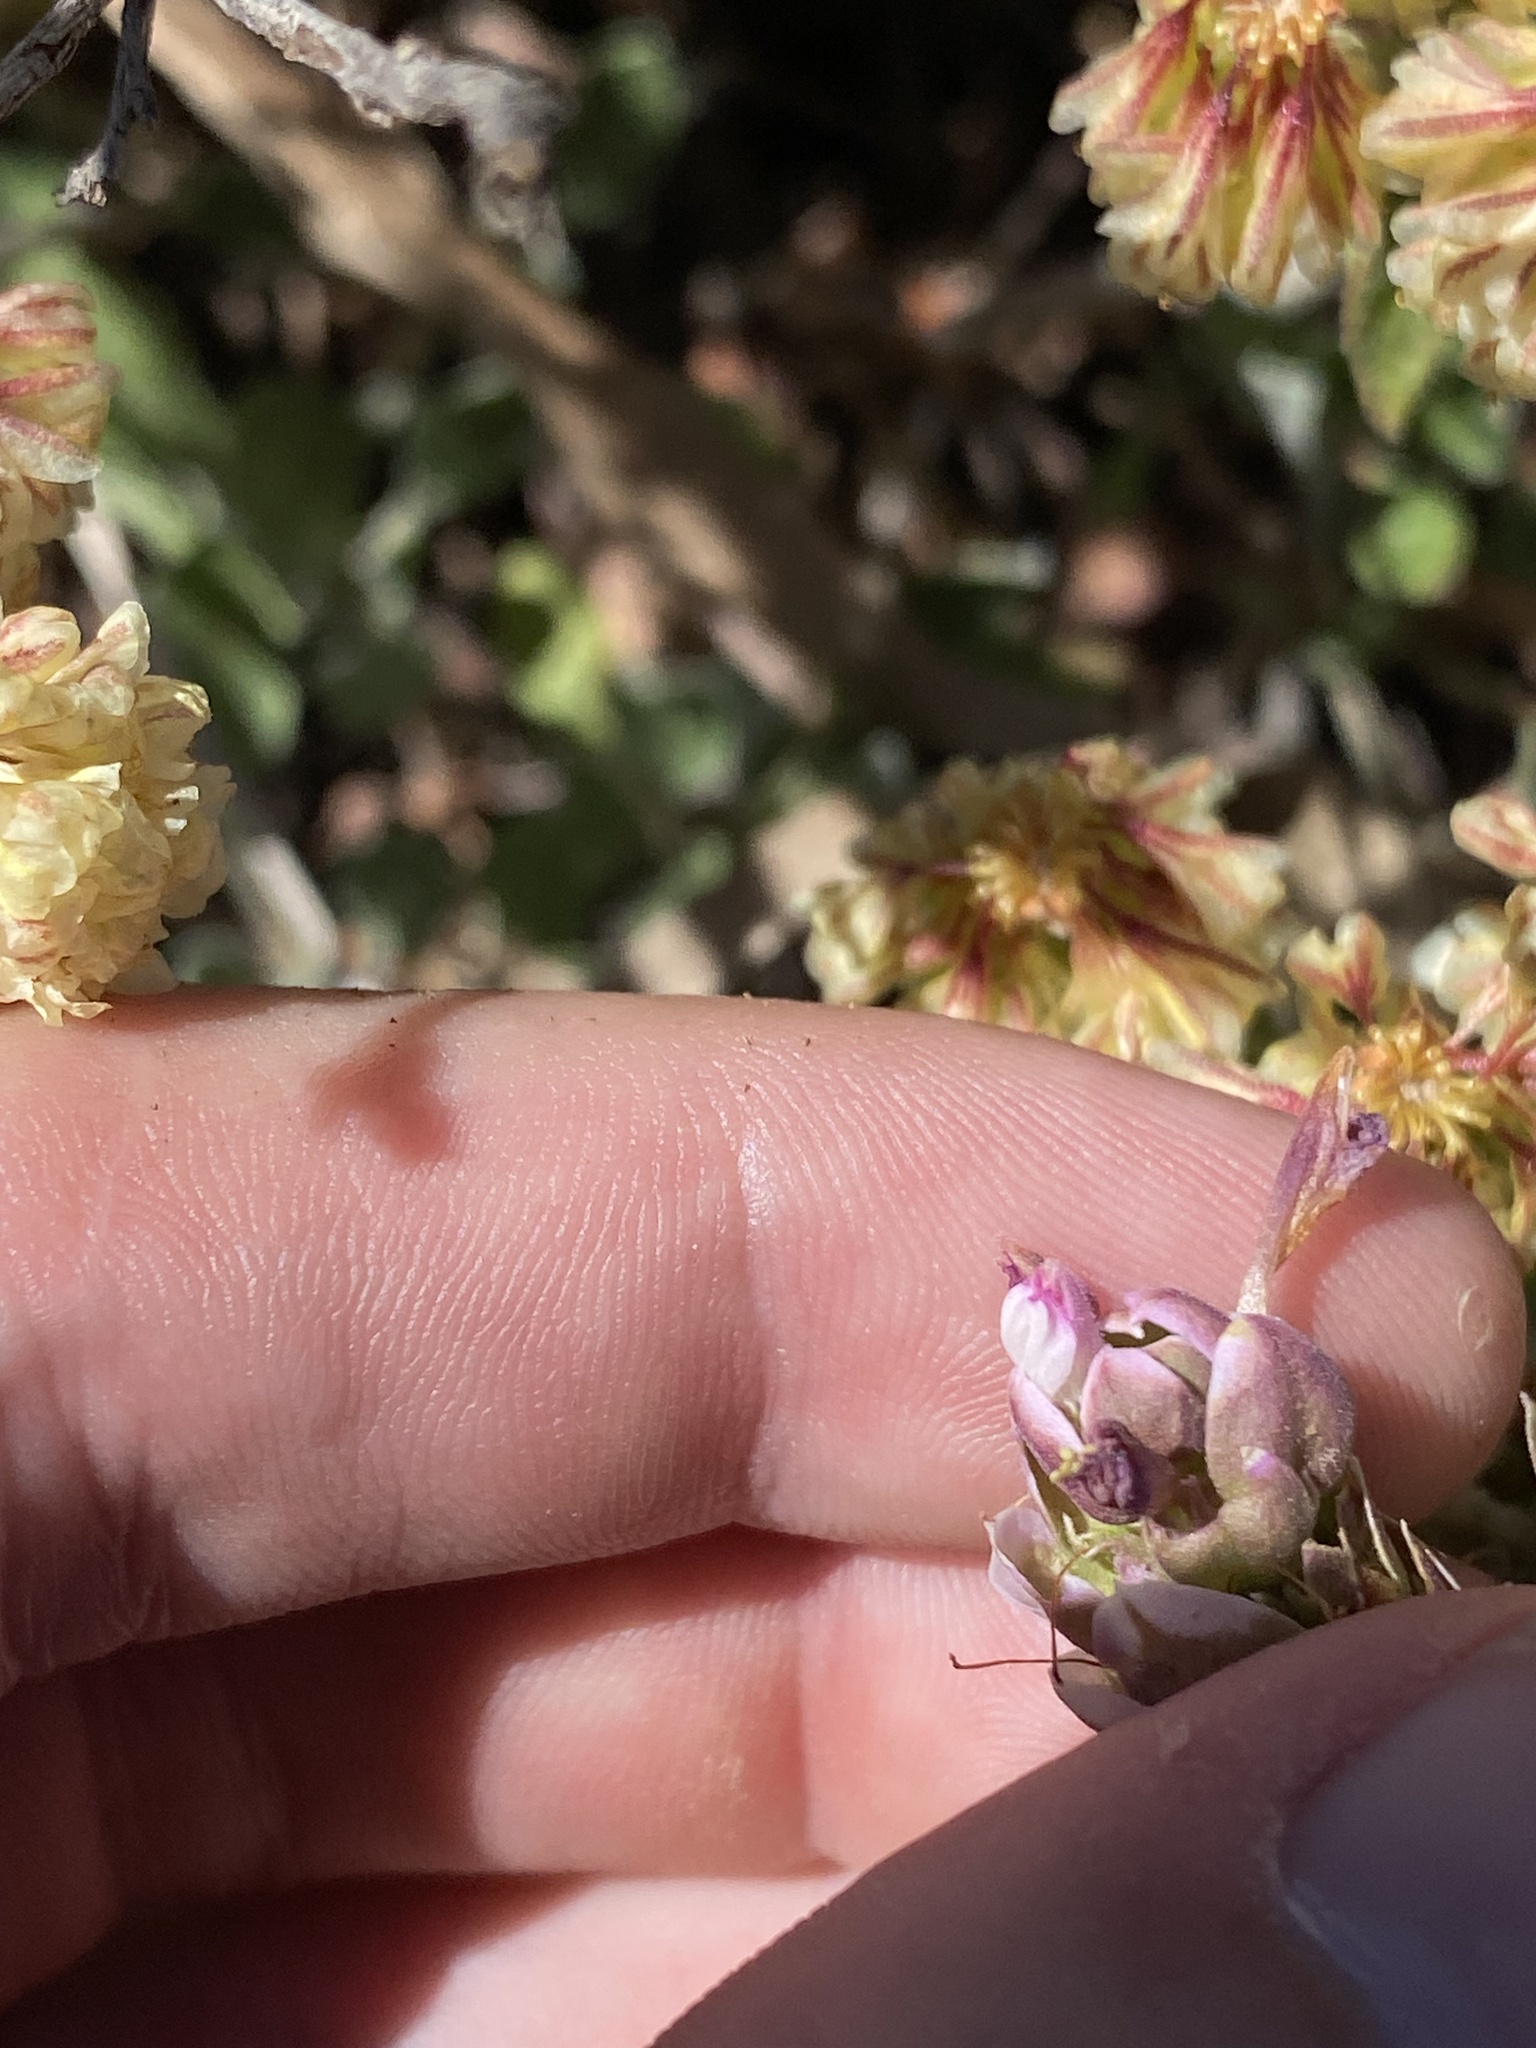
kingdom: Plantae
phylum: Tracheophyta
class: Magnoliopsida
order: Lamiales
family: Orobanchaceae
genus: Orthocarpus
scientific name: Orthocarpus cuspidatus
